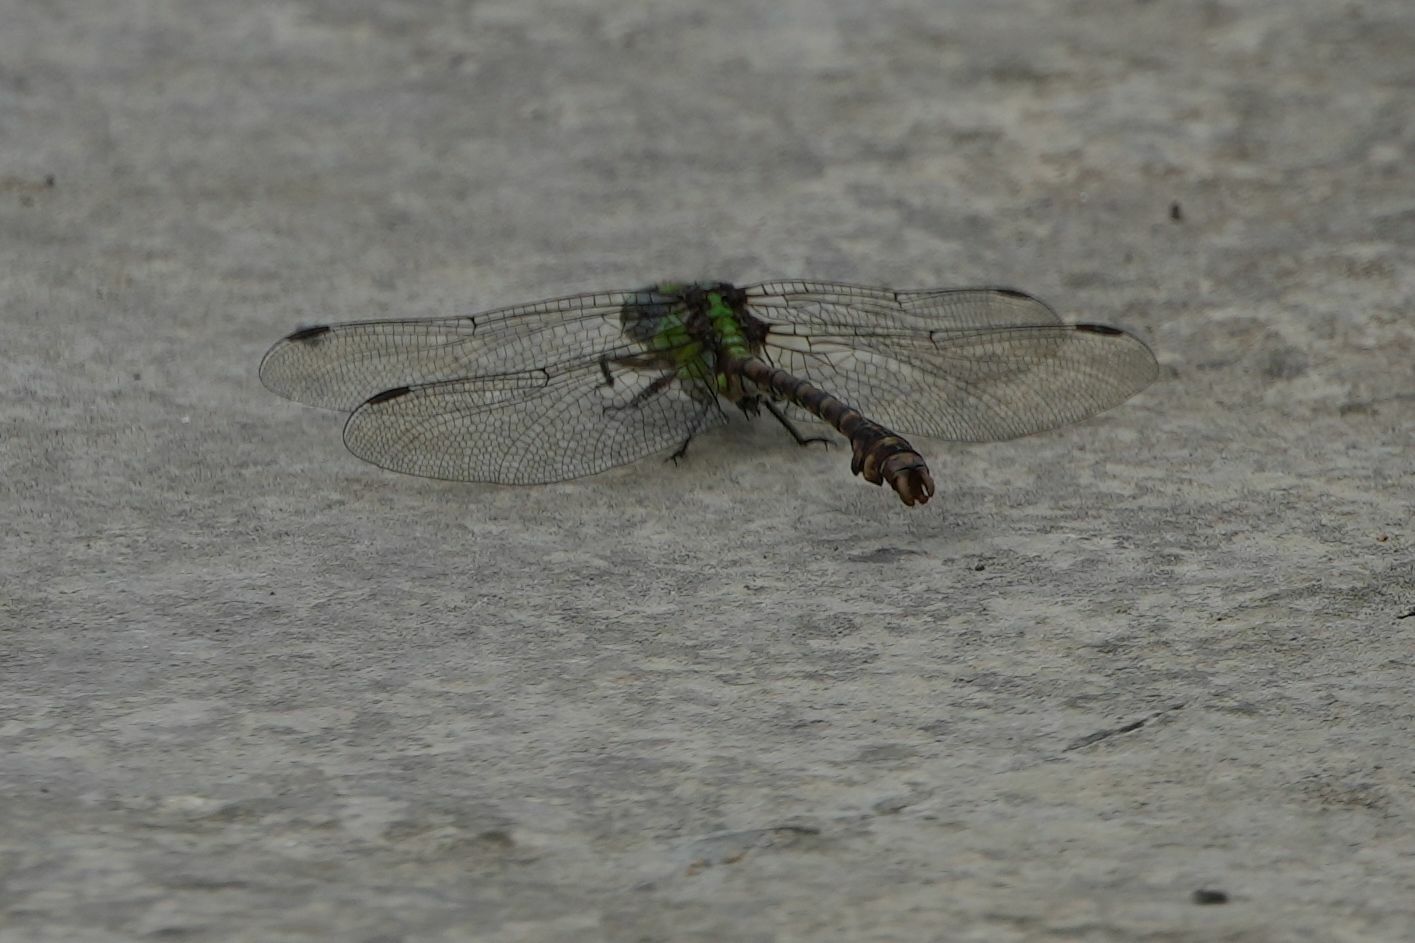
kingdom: Animalia
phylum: Arthropoda
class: Insecta
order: Odonata
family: Gomphidae
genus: Ophiogomphus
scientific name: Ophiogomphus rupinsulensis
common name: Rusty snaketail
